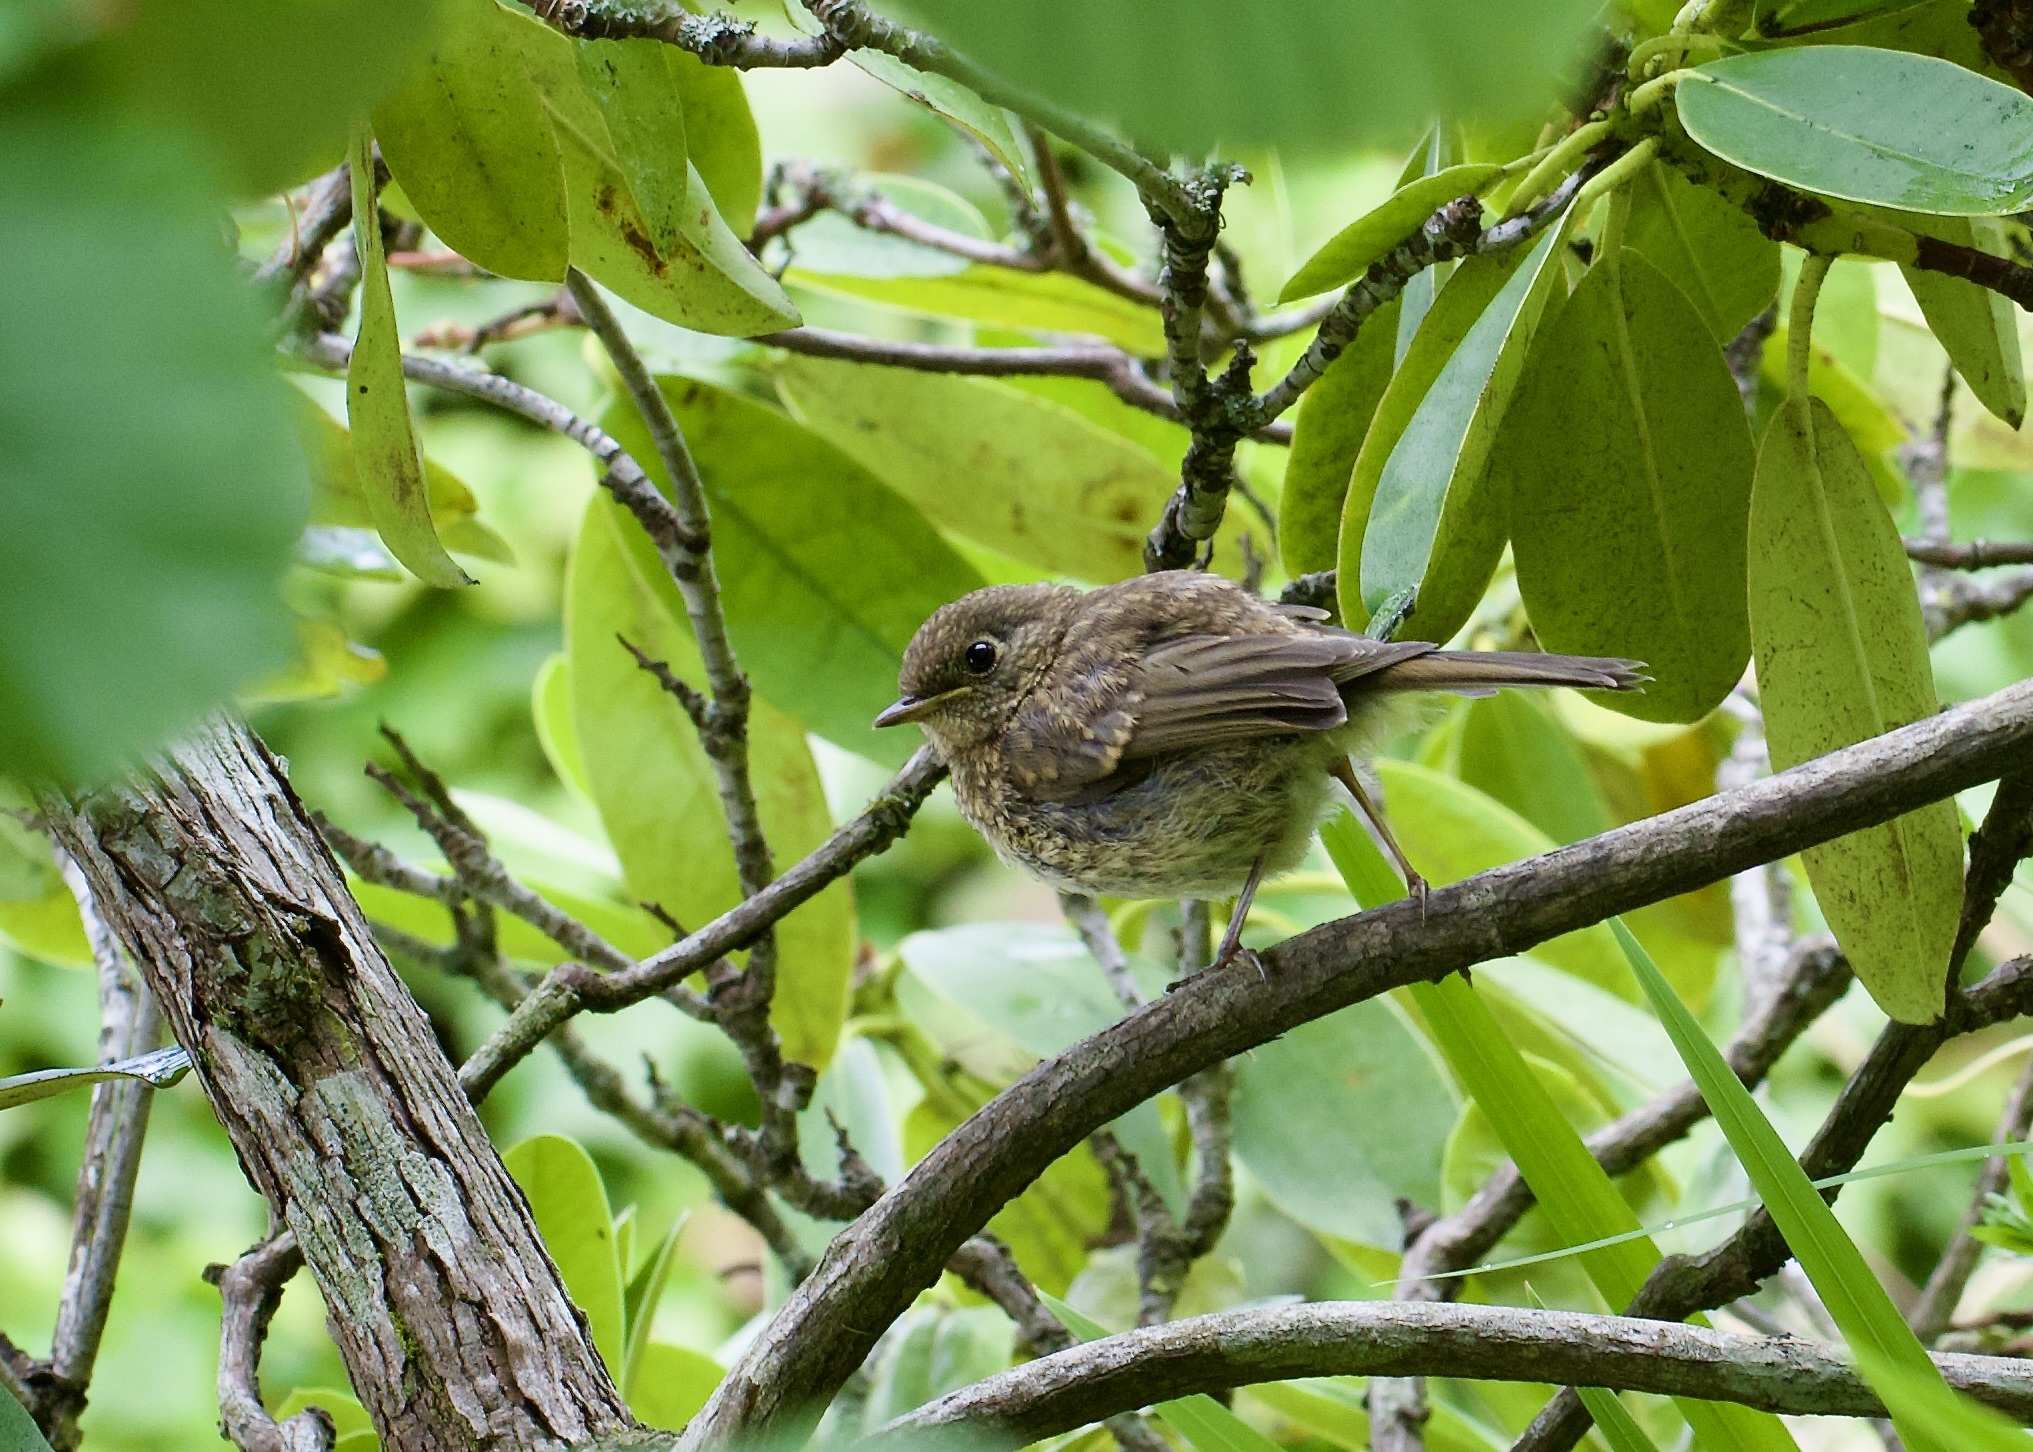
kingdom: Animalia
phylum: Chordata
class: Aves
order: Passeriformes
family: Muscicapidae
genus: Erithacus
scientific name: Erithacus rubecula
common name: European robin
